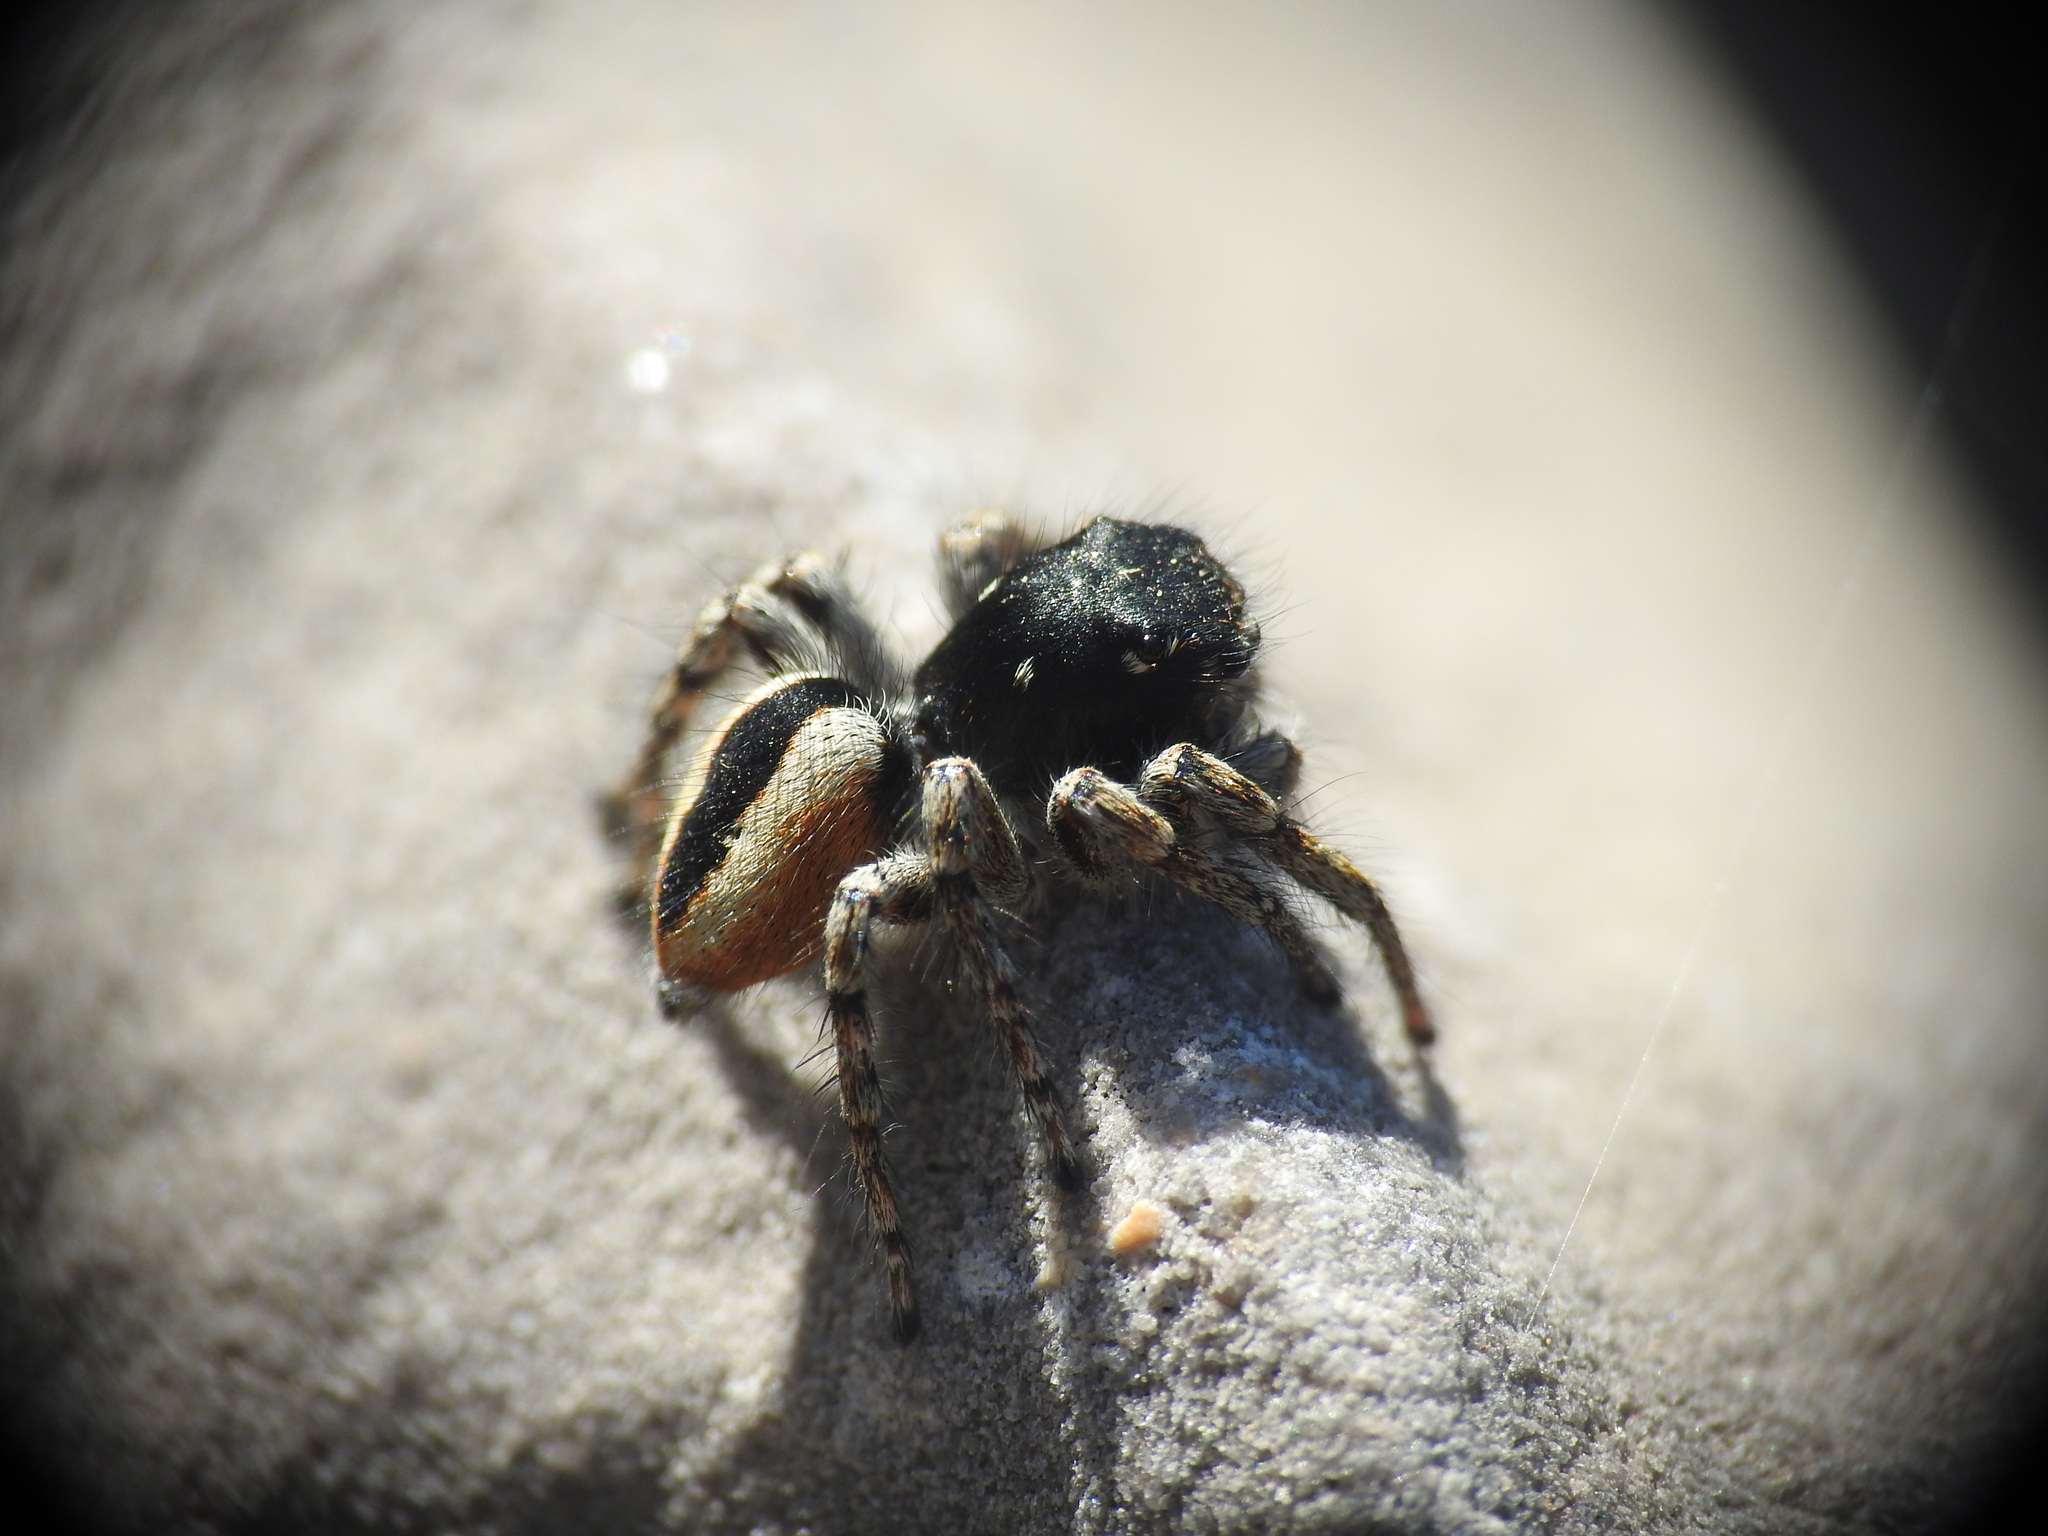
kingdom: Animalia
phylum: Arthropoda
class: Arachnida
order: Araneae
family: Salticidae
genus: Philaeus
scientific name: Philaeus chrysops
